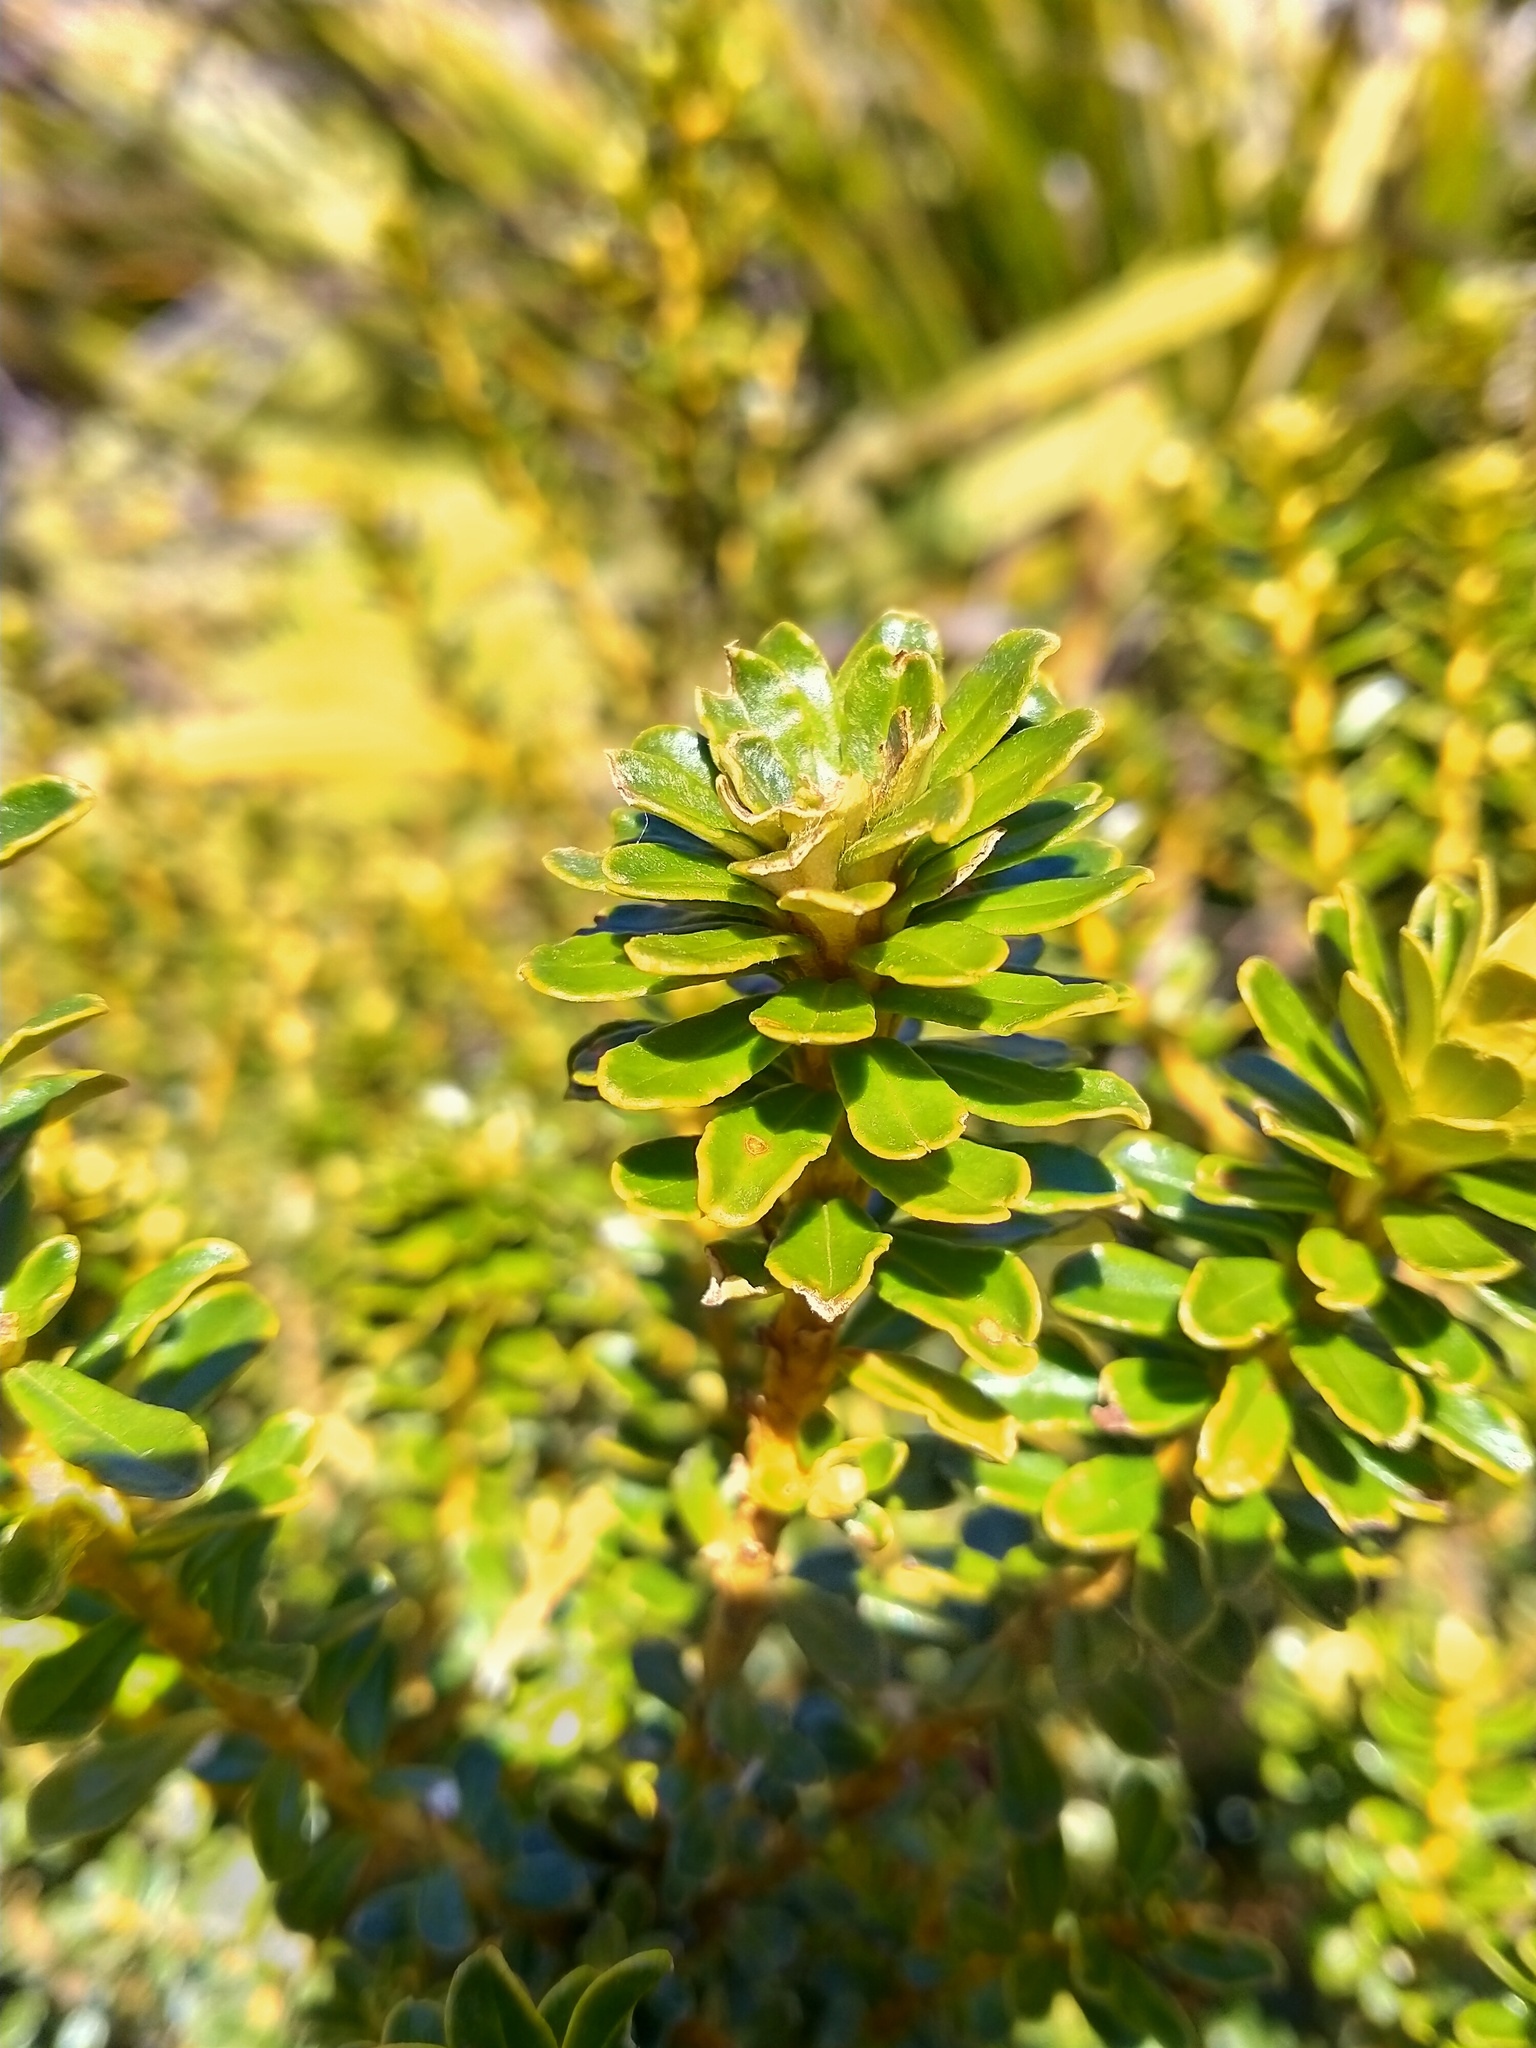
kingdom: Plantae
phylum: Tracheophyta
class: Magnoliopsida
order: Asterales
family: Asteraceae
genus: Ozothamnus
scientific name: Ozothamnus leptophyllus
